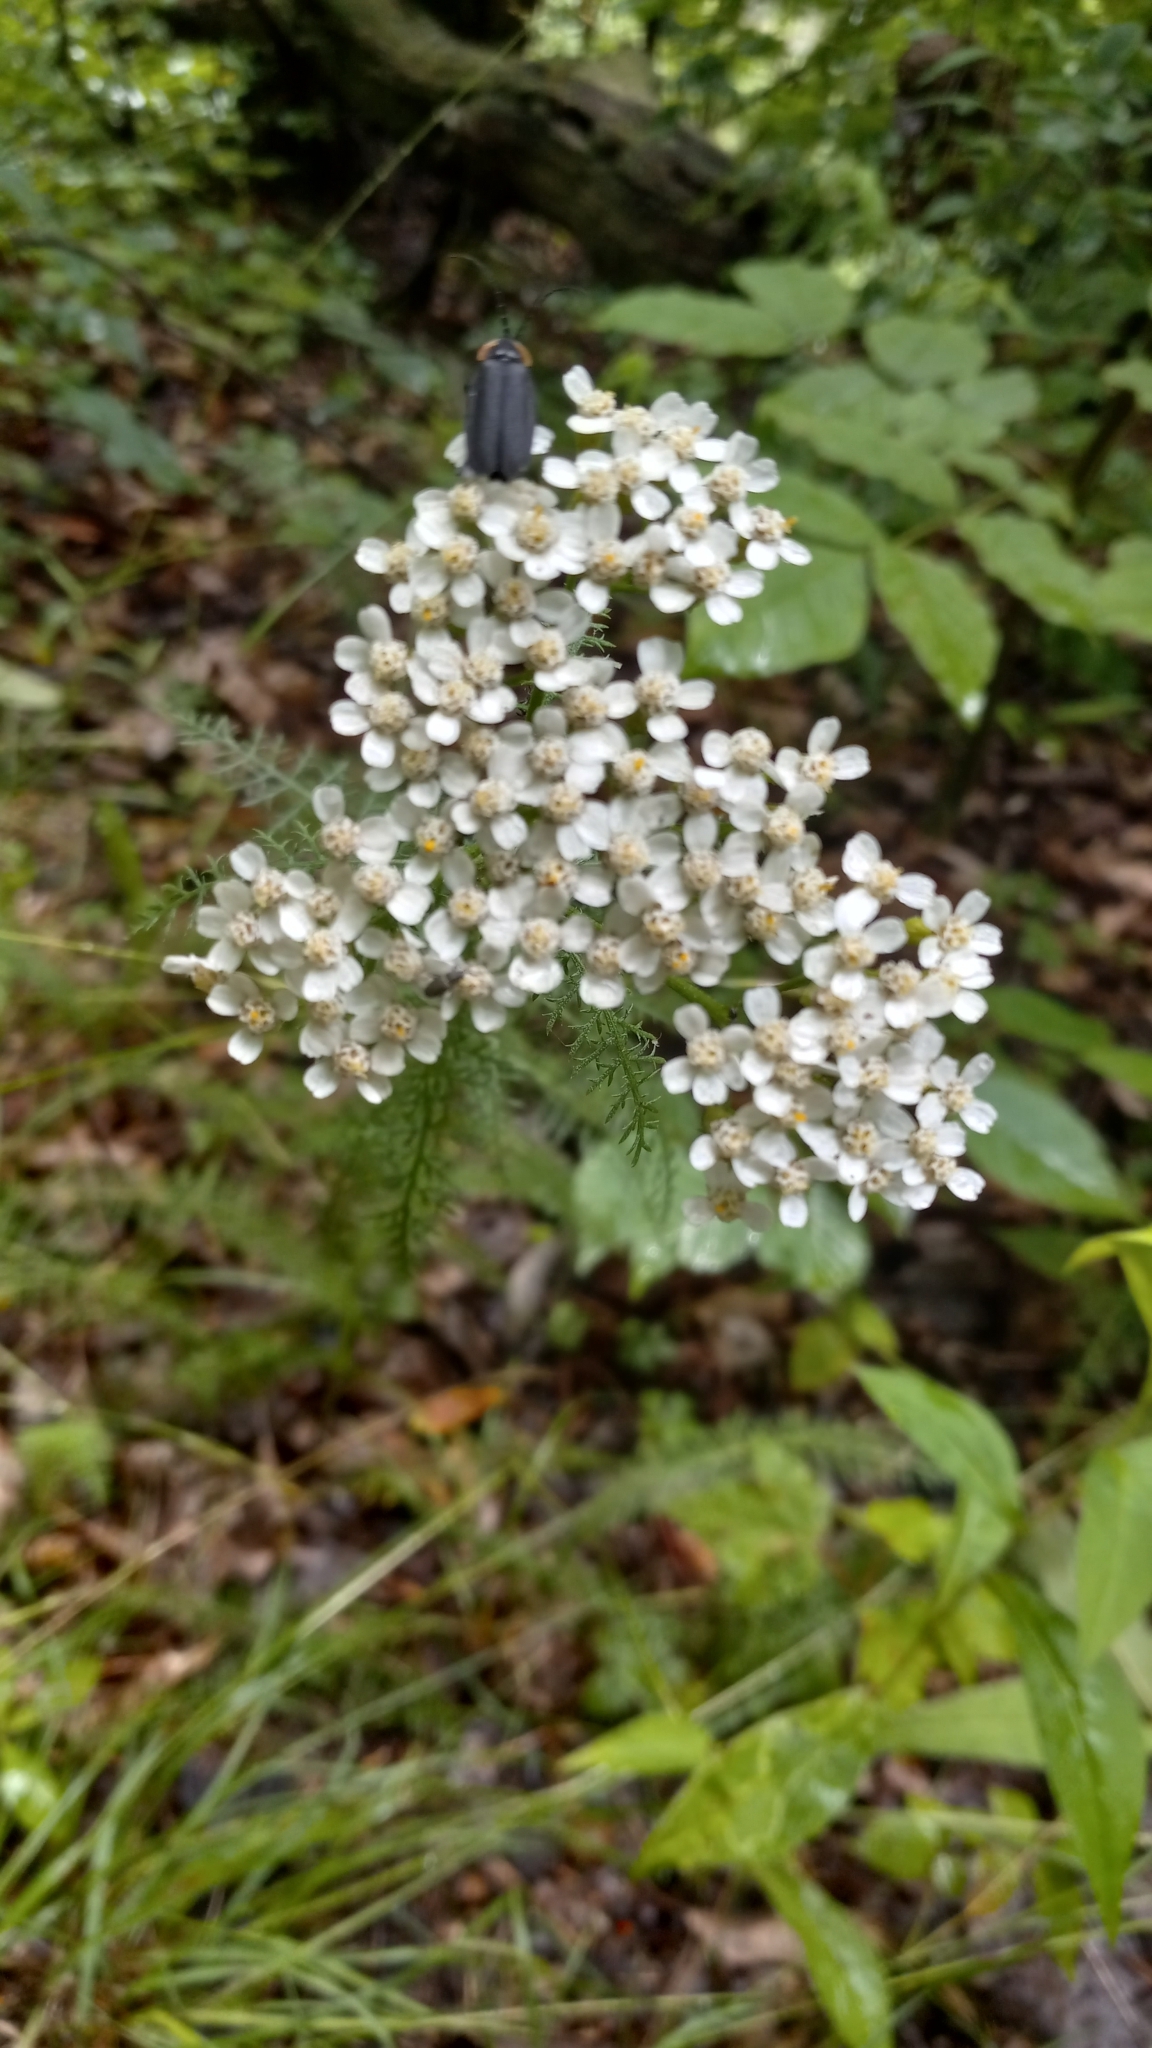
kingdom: Plantae
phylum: Tracheophyta
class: Magnoliopsida
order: Asterales
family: Asteraceae
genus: Achillea
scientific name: Achillea millefolium
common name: Yarrow
